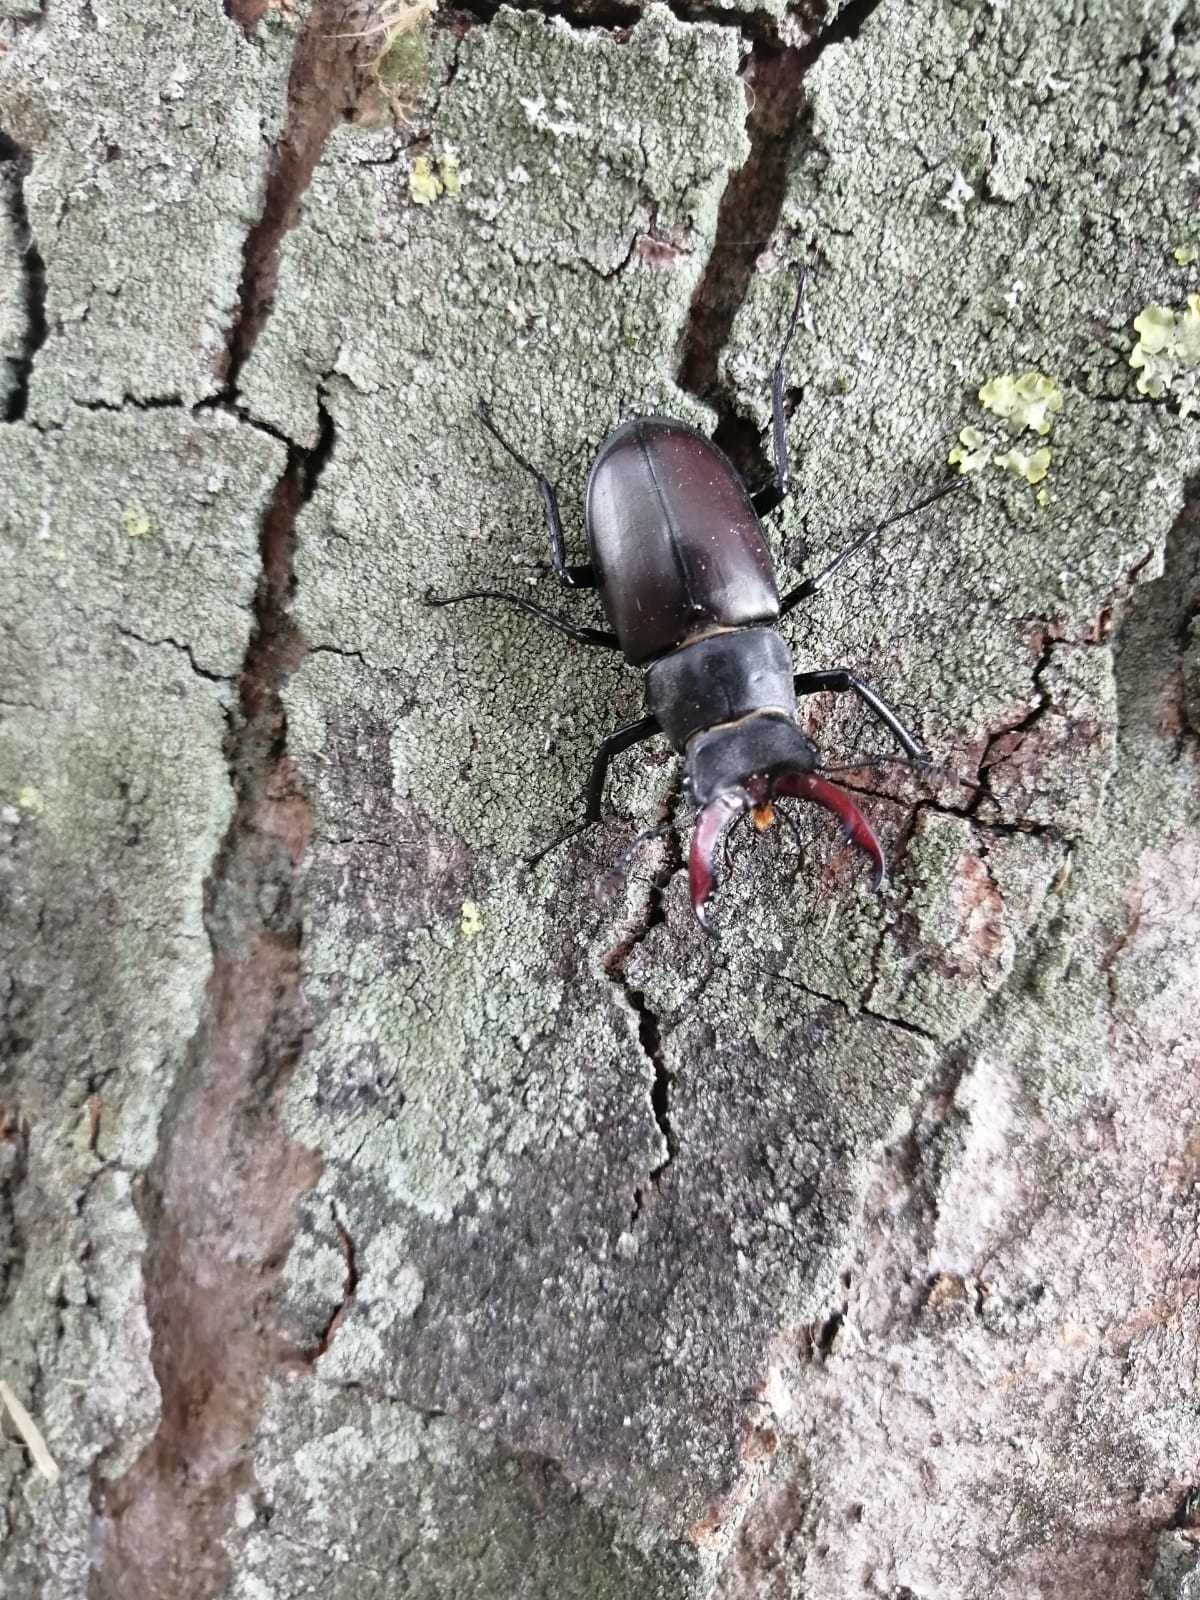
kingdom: Animalia
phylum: Arthropoda
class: Insecta
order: Coleoptera
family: Lucanidae
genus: Lucanus
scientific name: Lucanus cervus
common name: Stag beetle
